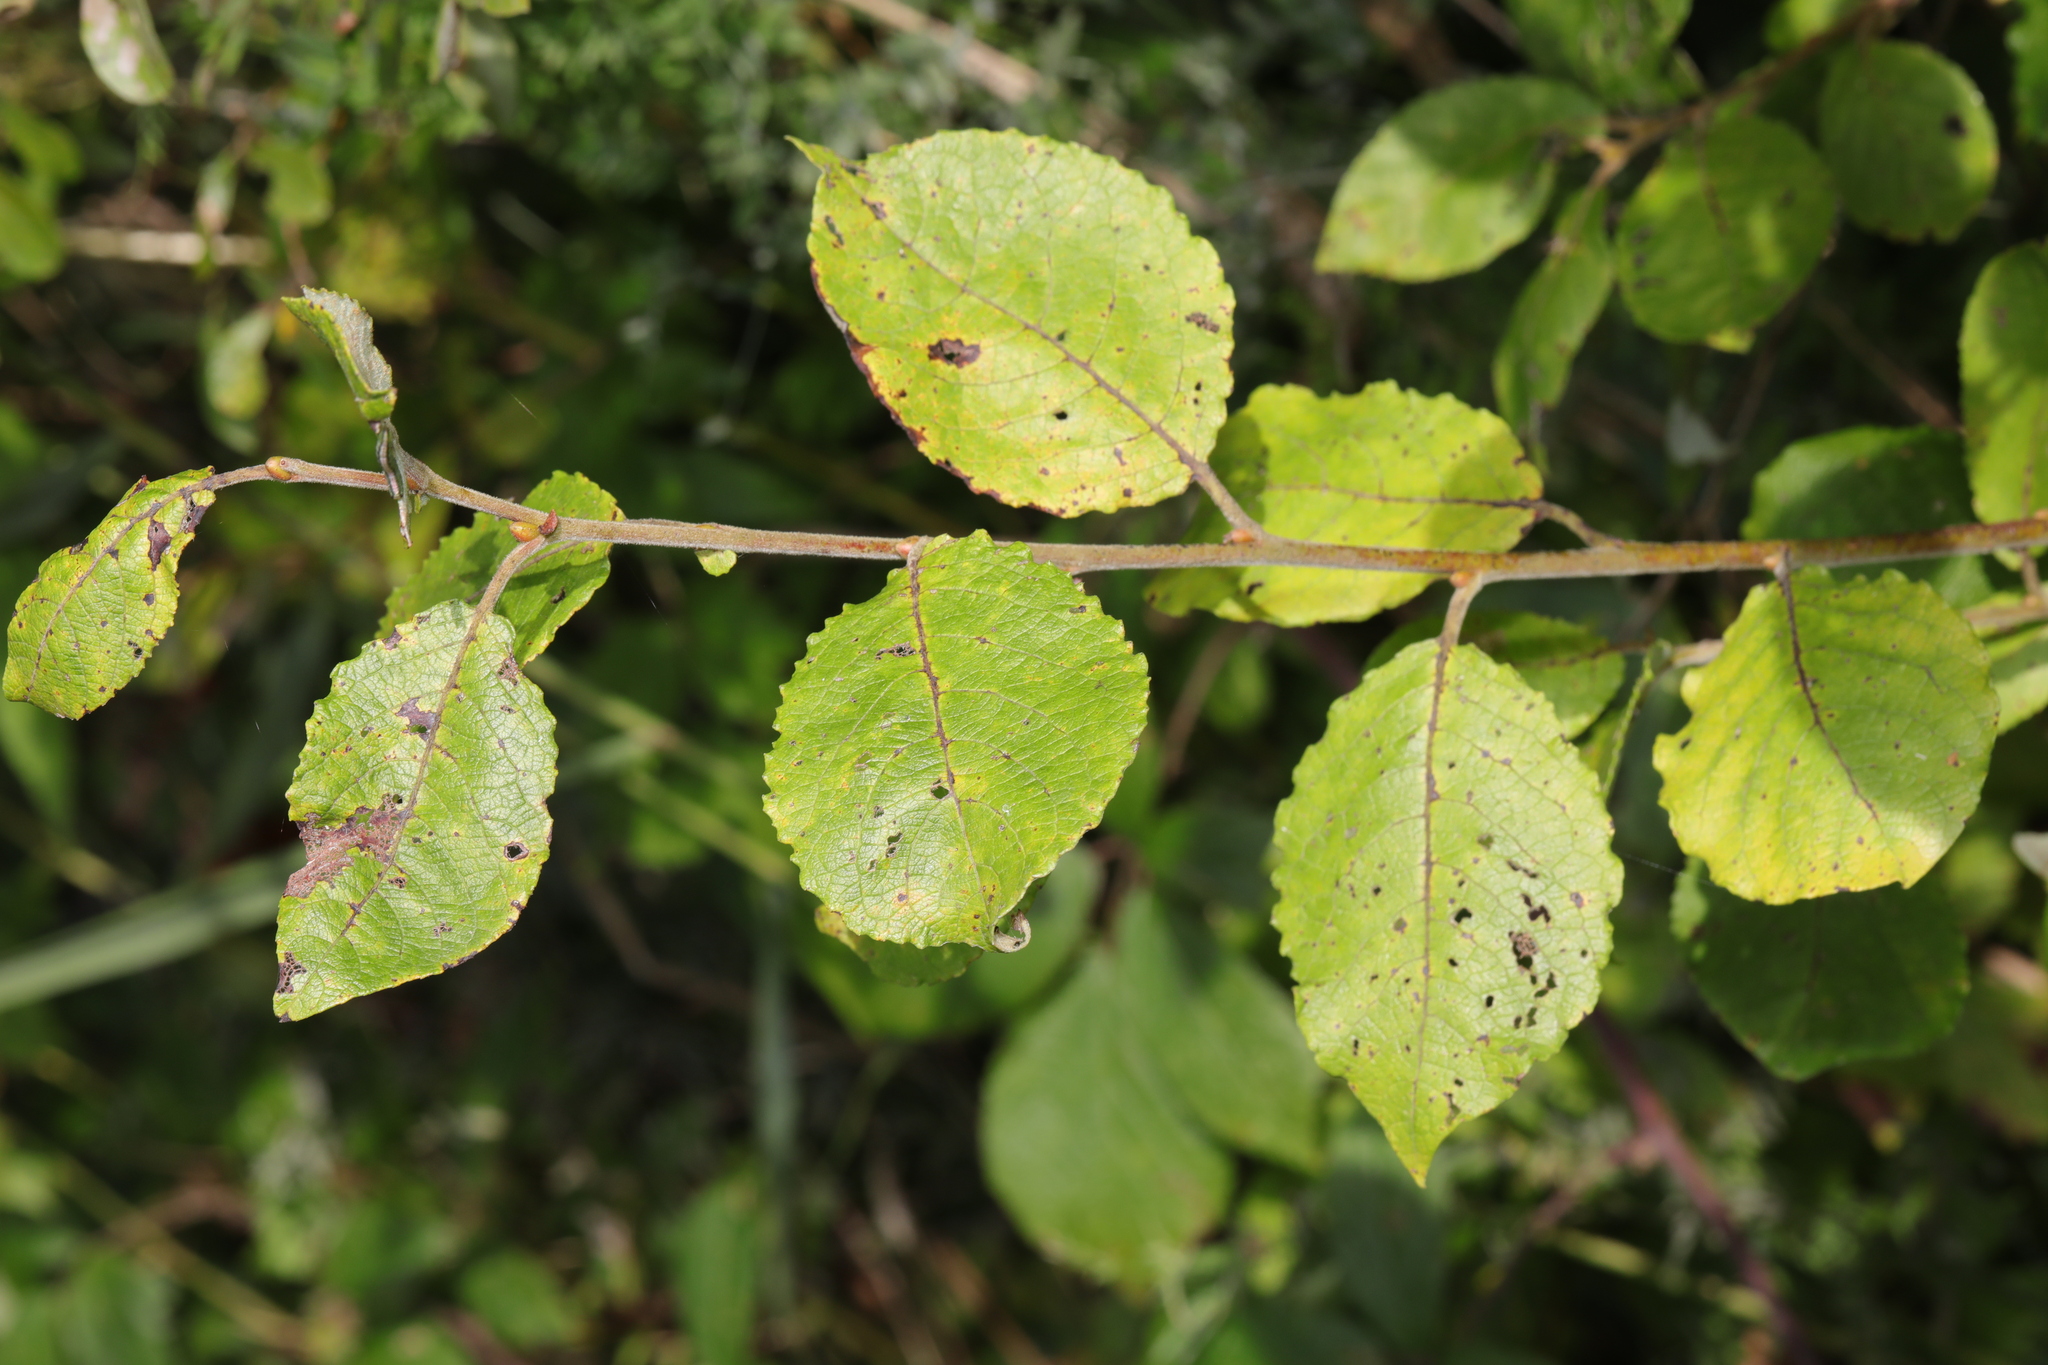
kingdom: Plantae
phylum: Tracheophyta
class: Magnoliopsida
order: Malpighiales
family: Salicaceae
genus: Salix
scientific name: Salix caprea
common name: Goat willow
